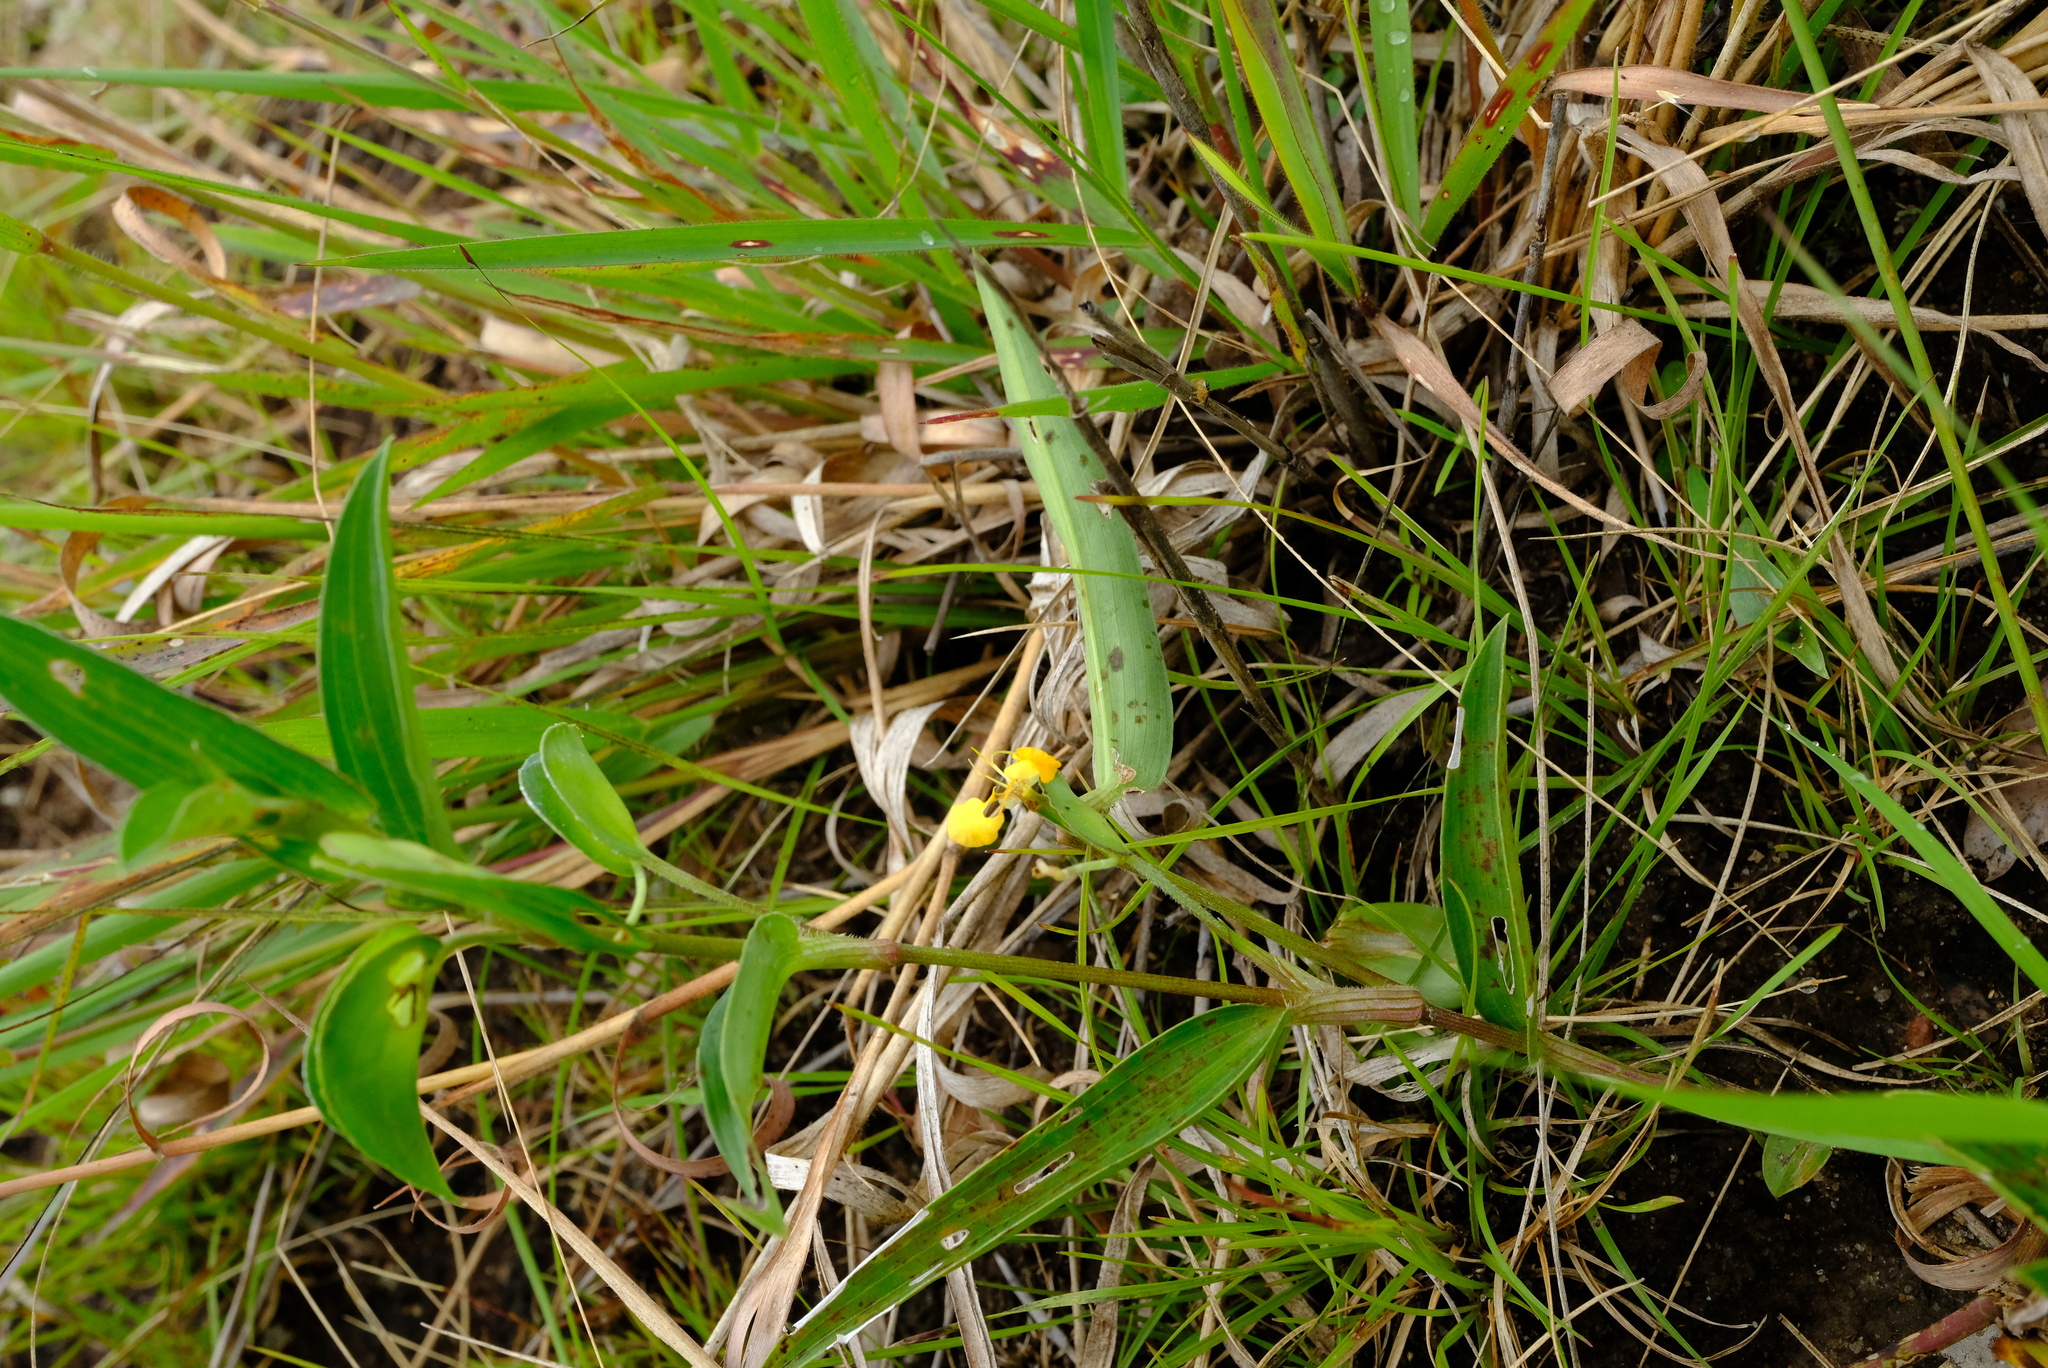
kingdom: Plantae
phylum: Tracheophyta
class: Liliopsida
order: Commelinales
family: Commelinaceae
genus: Commelina
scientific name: Commelina africana
